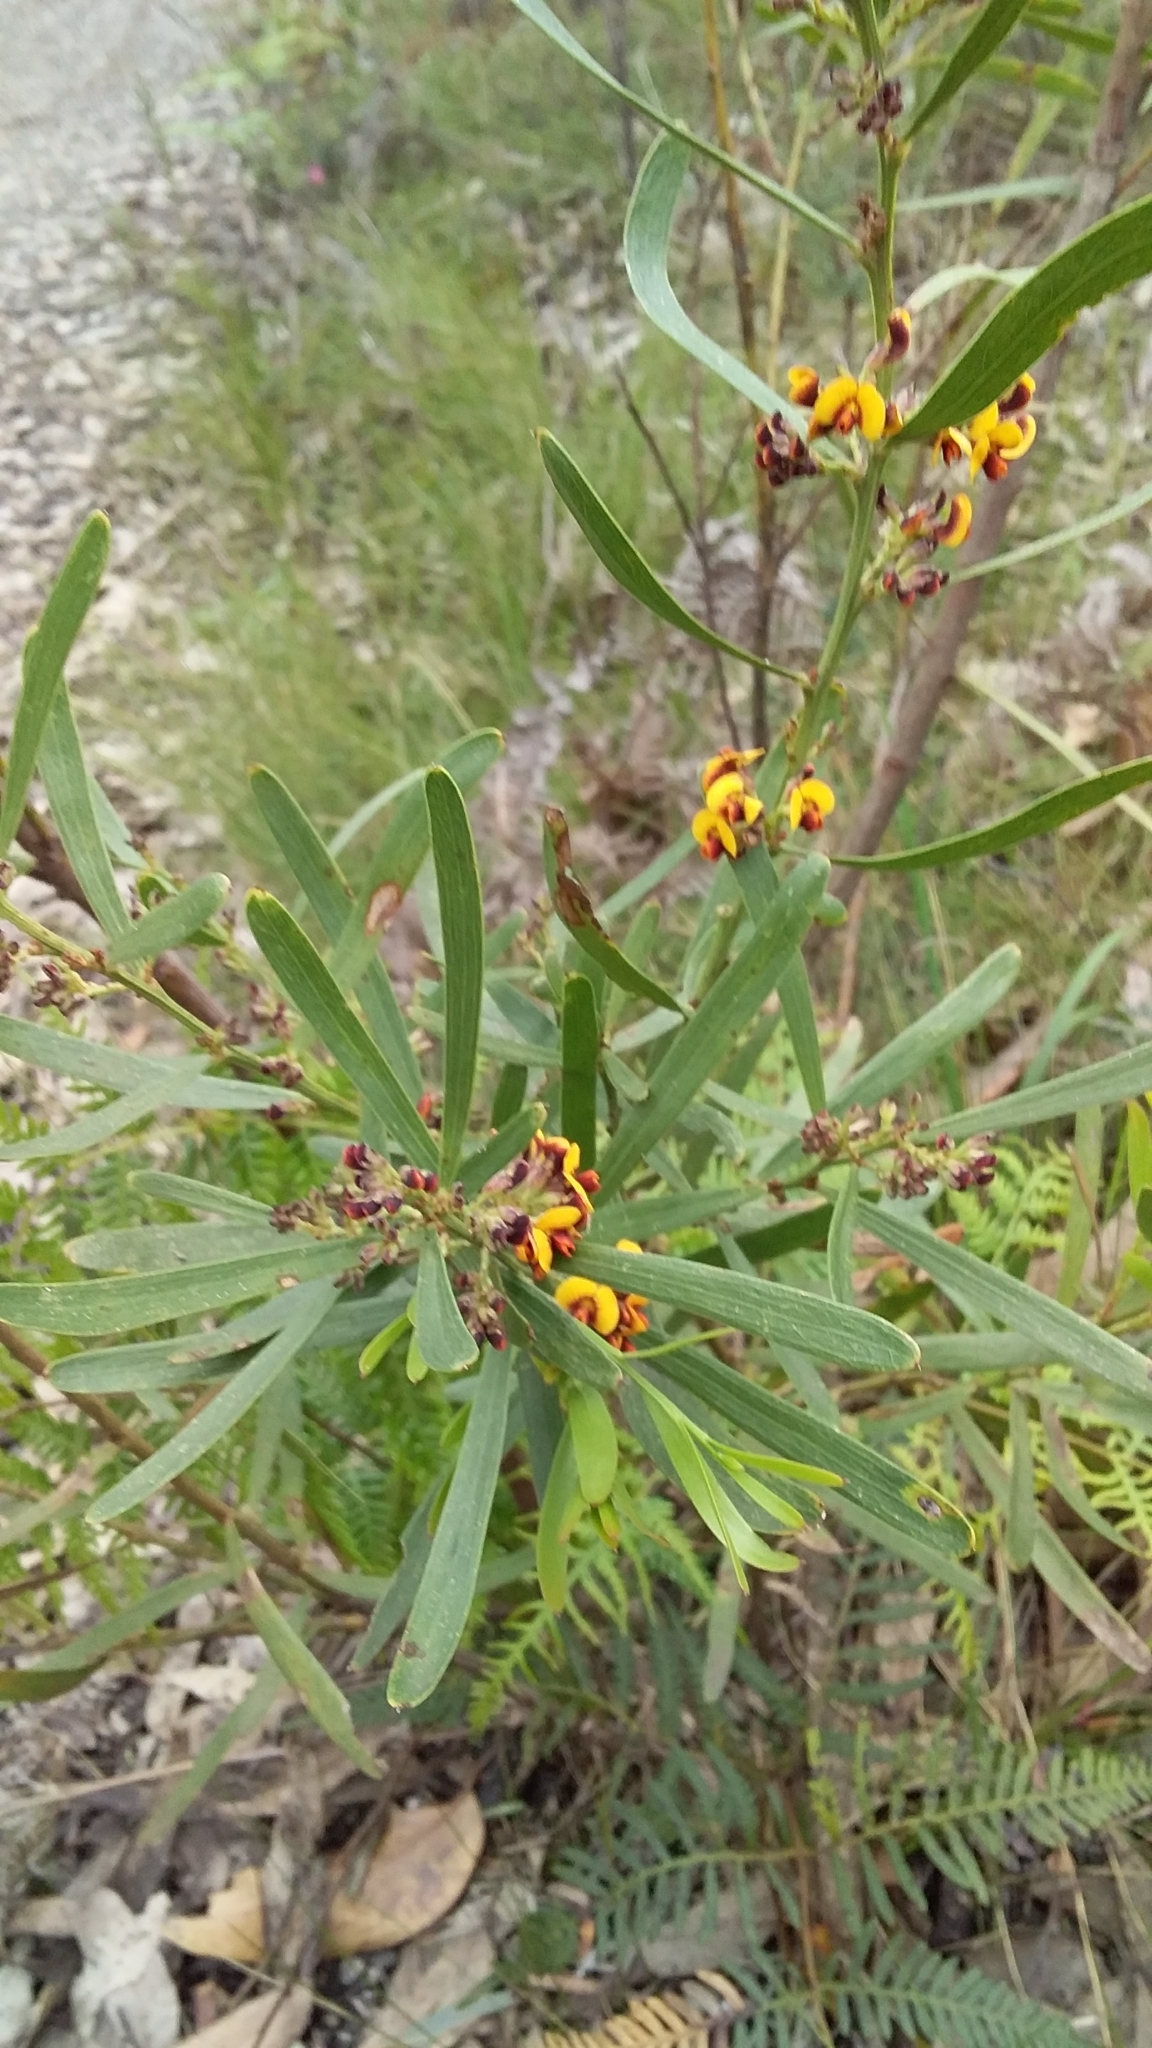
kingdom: Plantae
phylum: Tracheophyta
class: Magnoliopsida
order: Fabales
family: Fabaceae
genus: Daviesia
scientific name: Daviesia leptophylla
